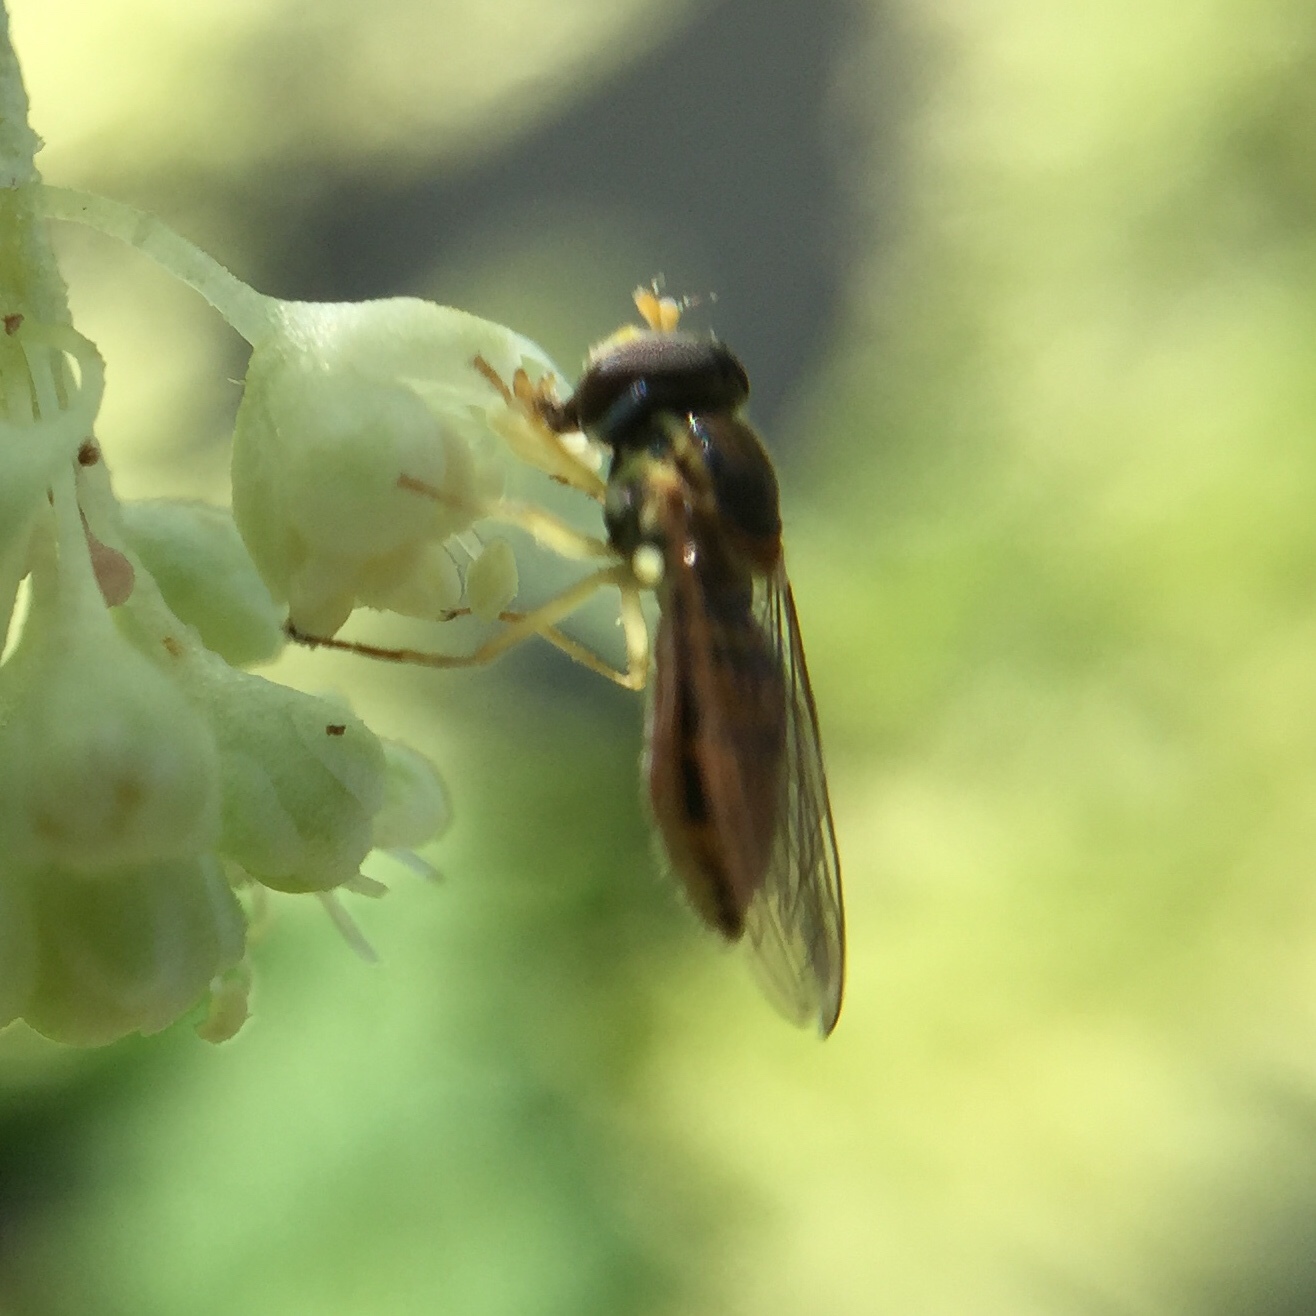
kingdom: Animalia
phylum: Arthropoda
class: Insecta
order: Diptera
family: Syrphidae
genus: Toxomerus
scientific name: Toxomerus marginatus
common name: Syrphid fly
